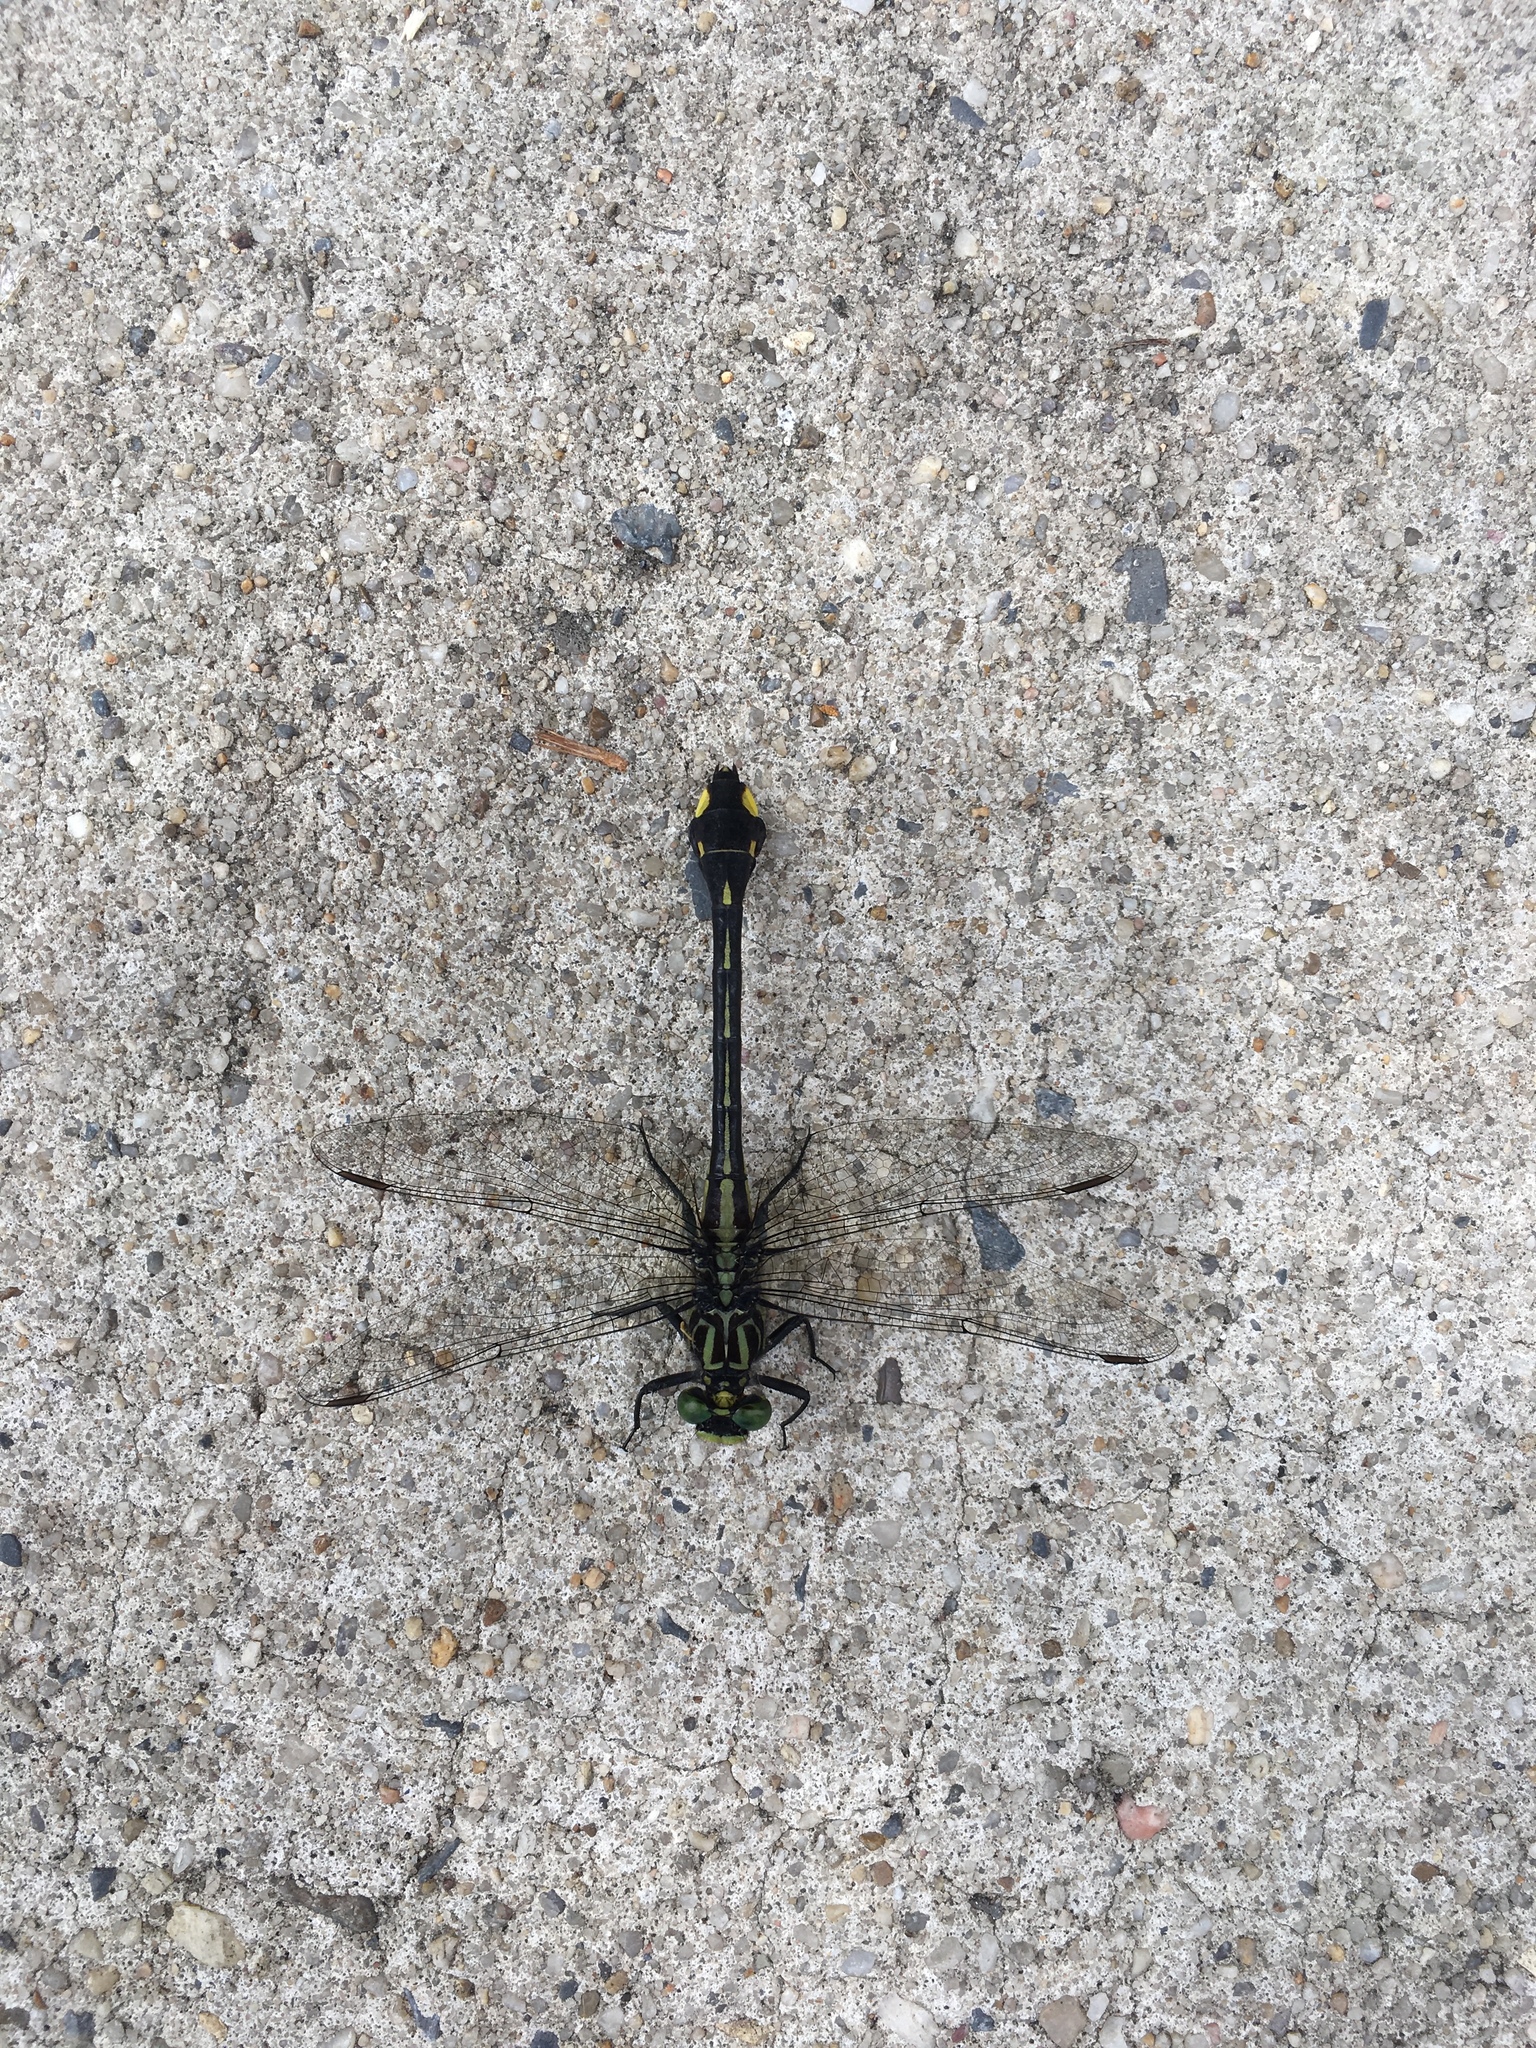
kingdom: Animalia
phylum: Arthropoda
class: Insecta
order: Odonata
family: Gomphidae
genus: Gomphurus
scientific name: Gomphurus vastus
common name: Cobra clubtail
